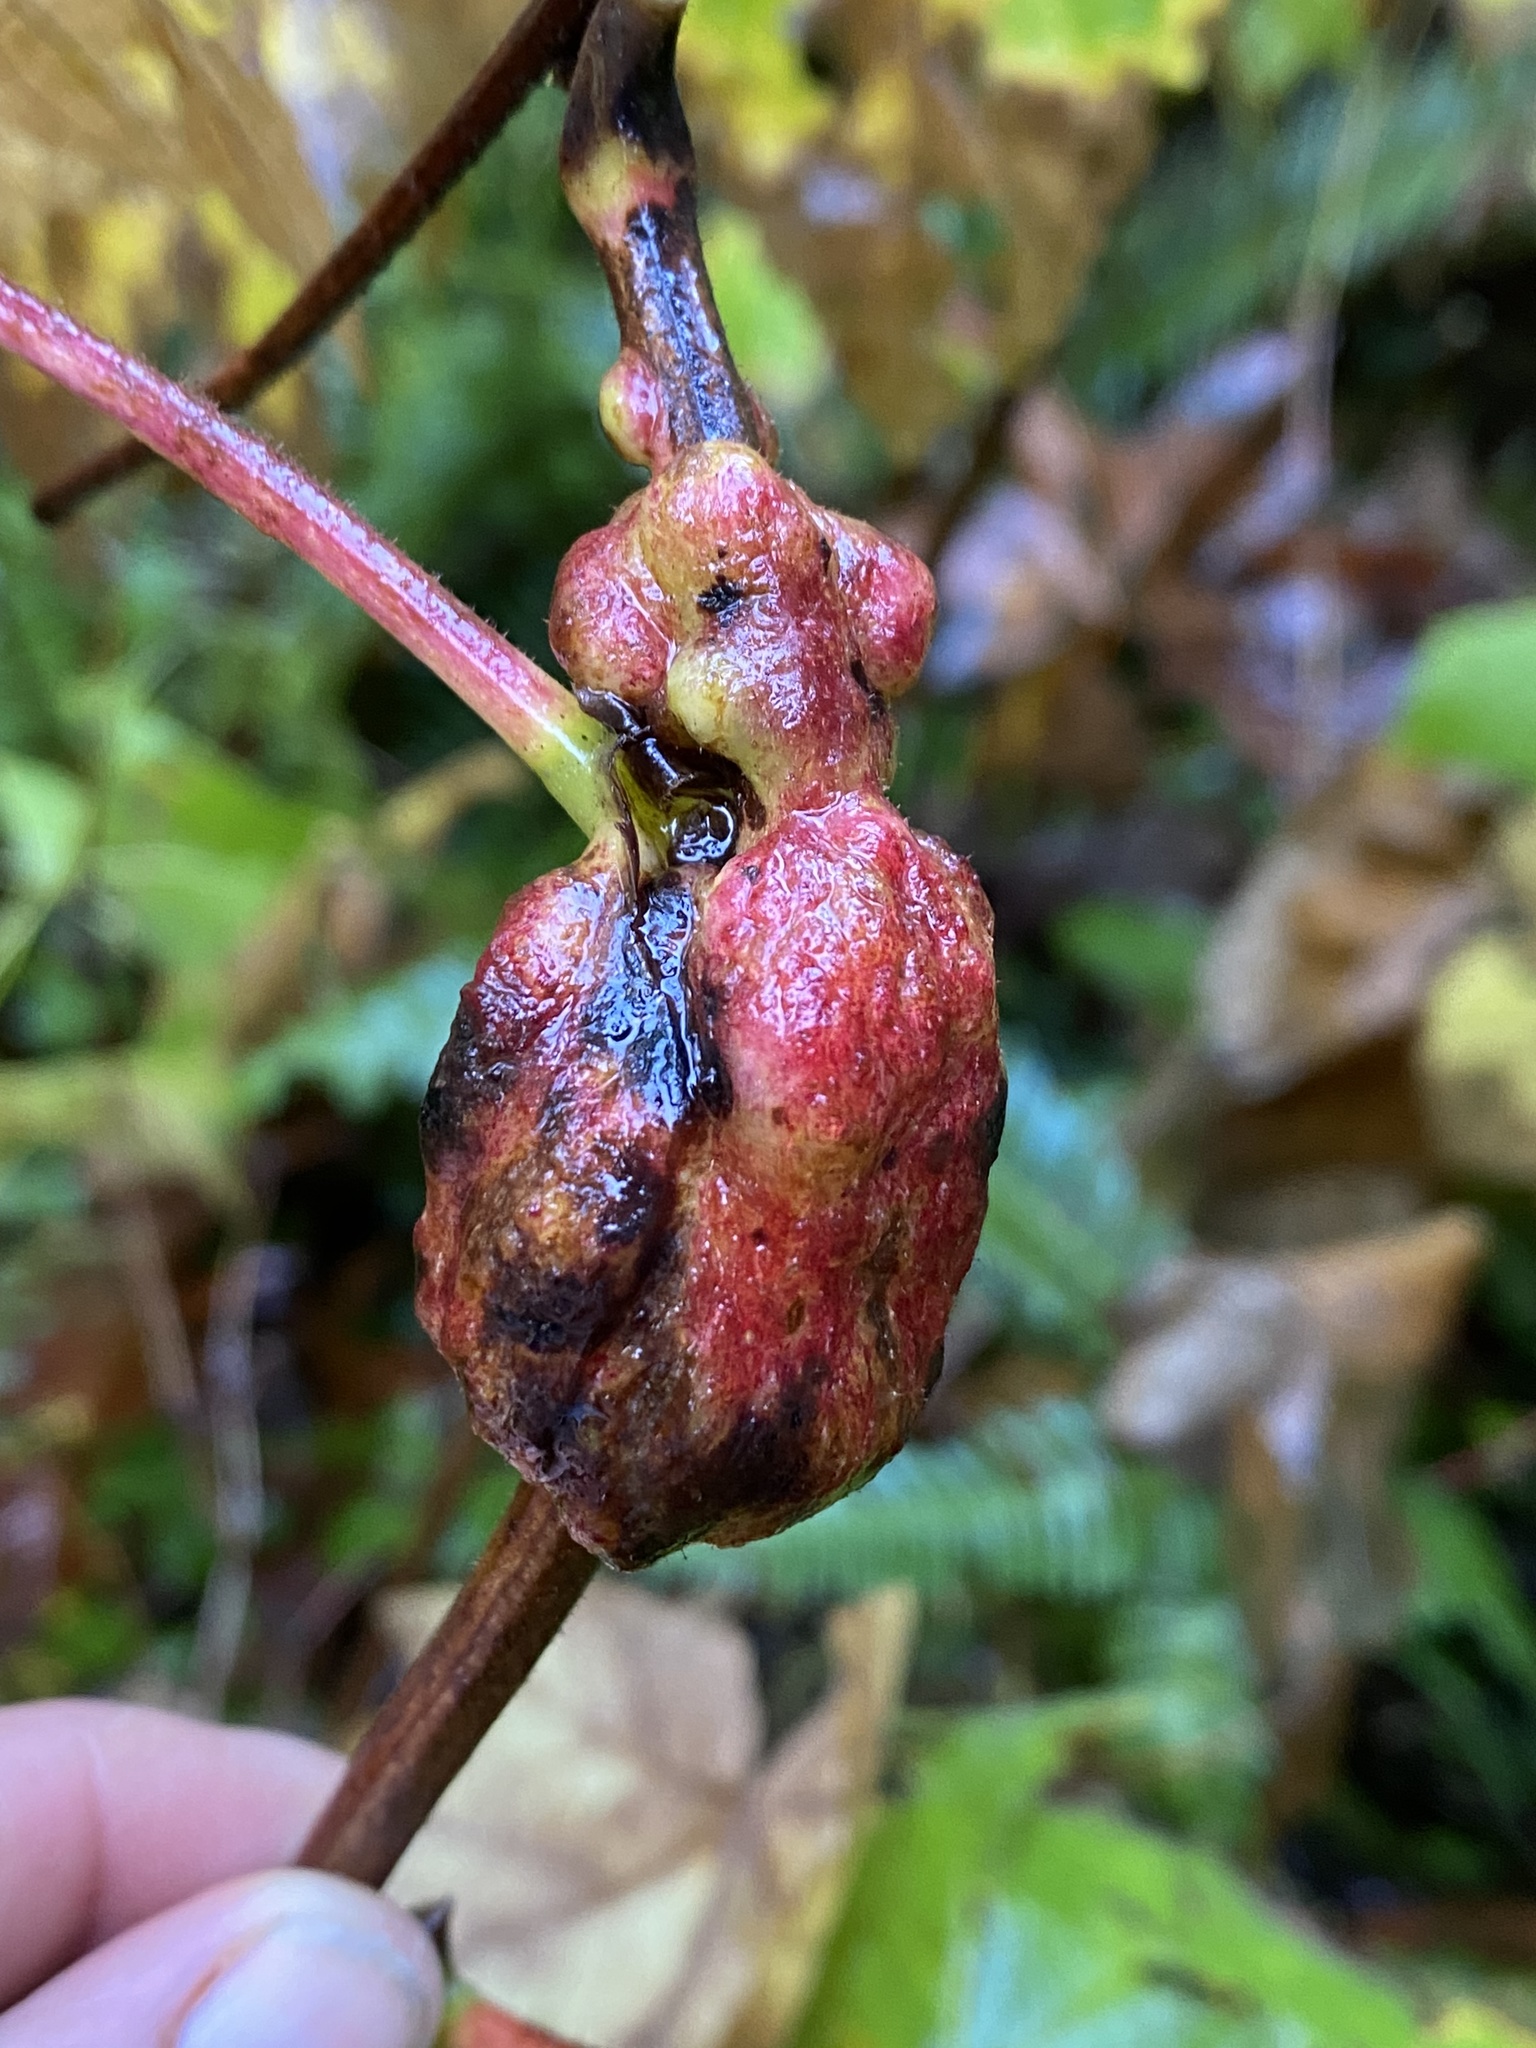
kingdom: Animalia
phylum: Arthropoda
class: Insecta
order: Hymenoptera
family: Cynipidae
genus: Diastrophus
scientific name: Diastrophus
